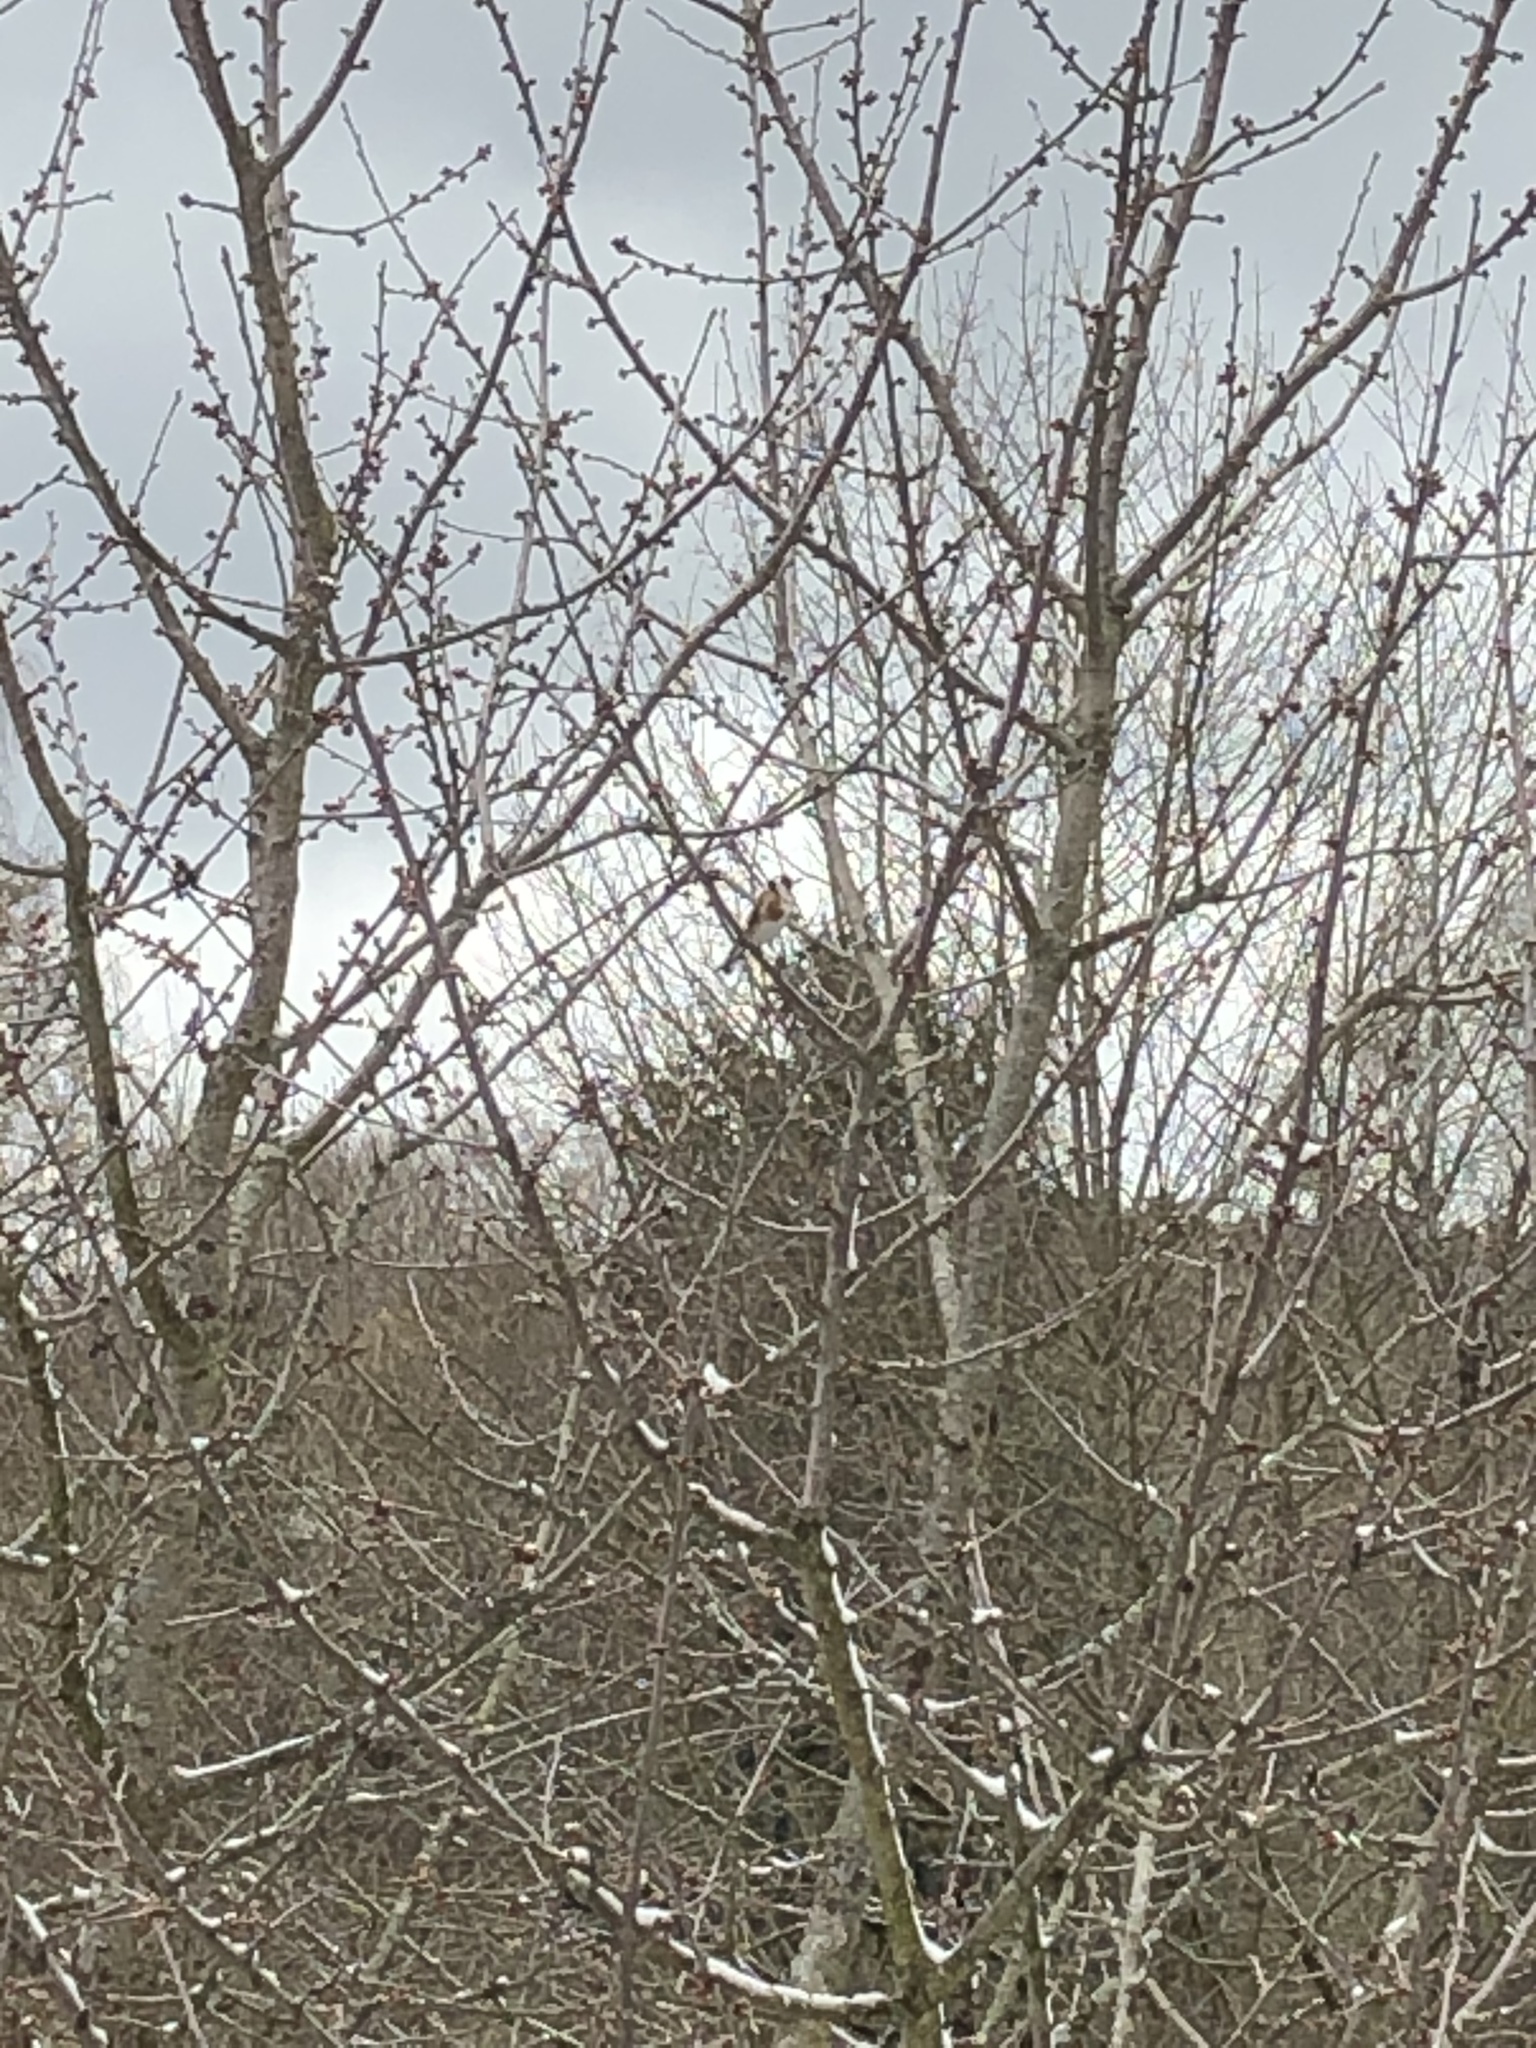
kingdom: Animalia
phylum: Chordata
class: Aves
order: Passeriformes
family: Fringillidae
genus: Carduelis
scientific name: Carduelis carduelis
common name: European goldfinch
